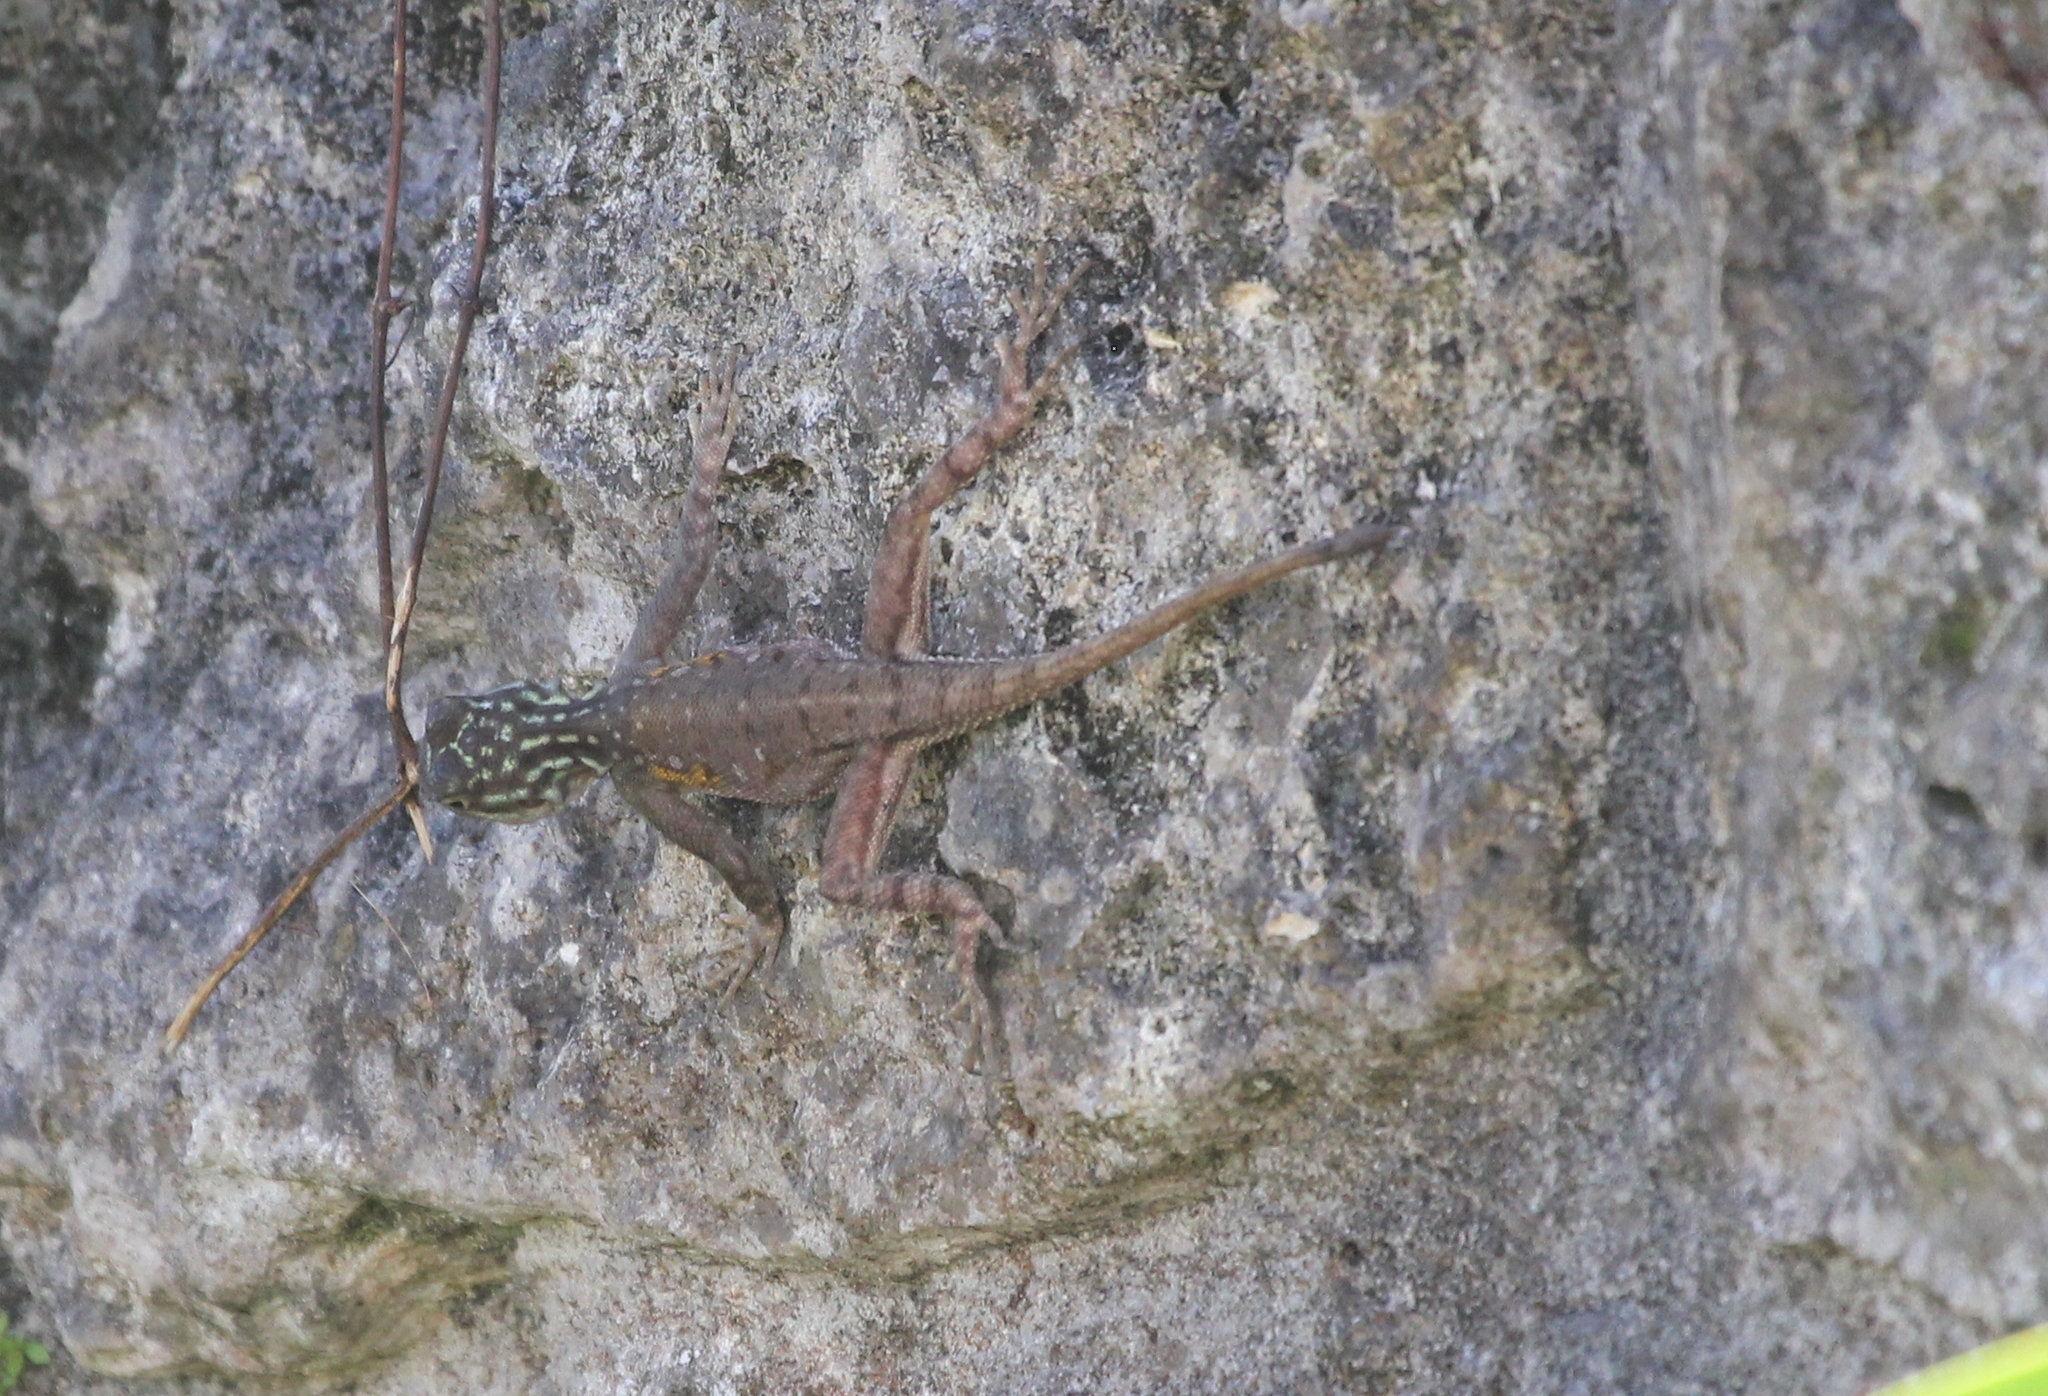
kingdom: Animalia
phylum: Chordata
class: Squamata
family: Agamidae
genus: Agama
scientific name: Agama picticauda
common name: Red-headed agama
